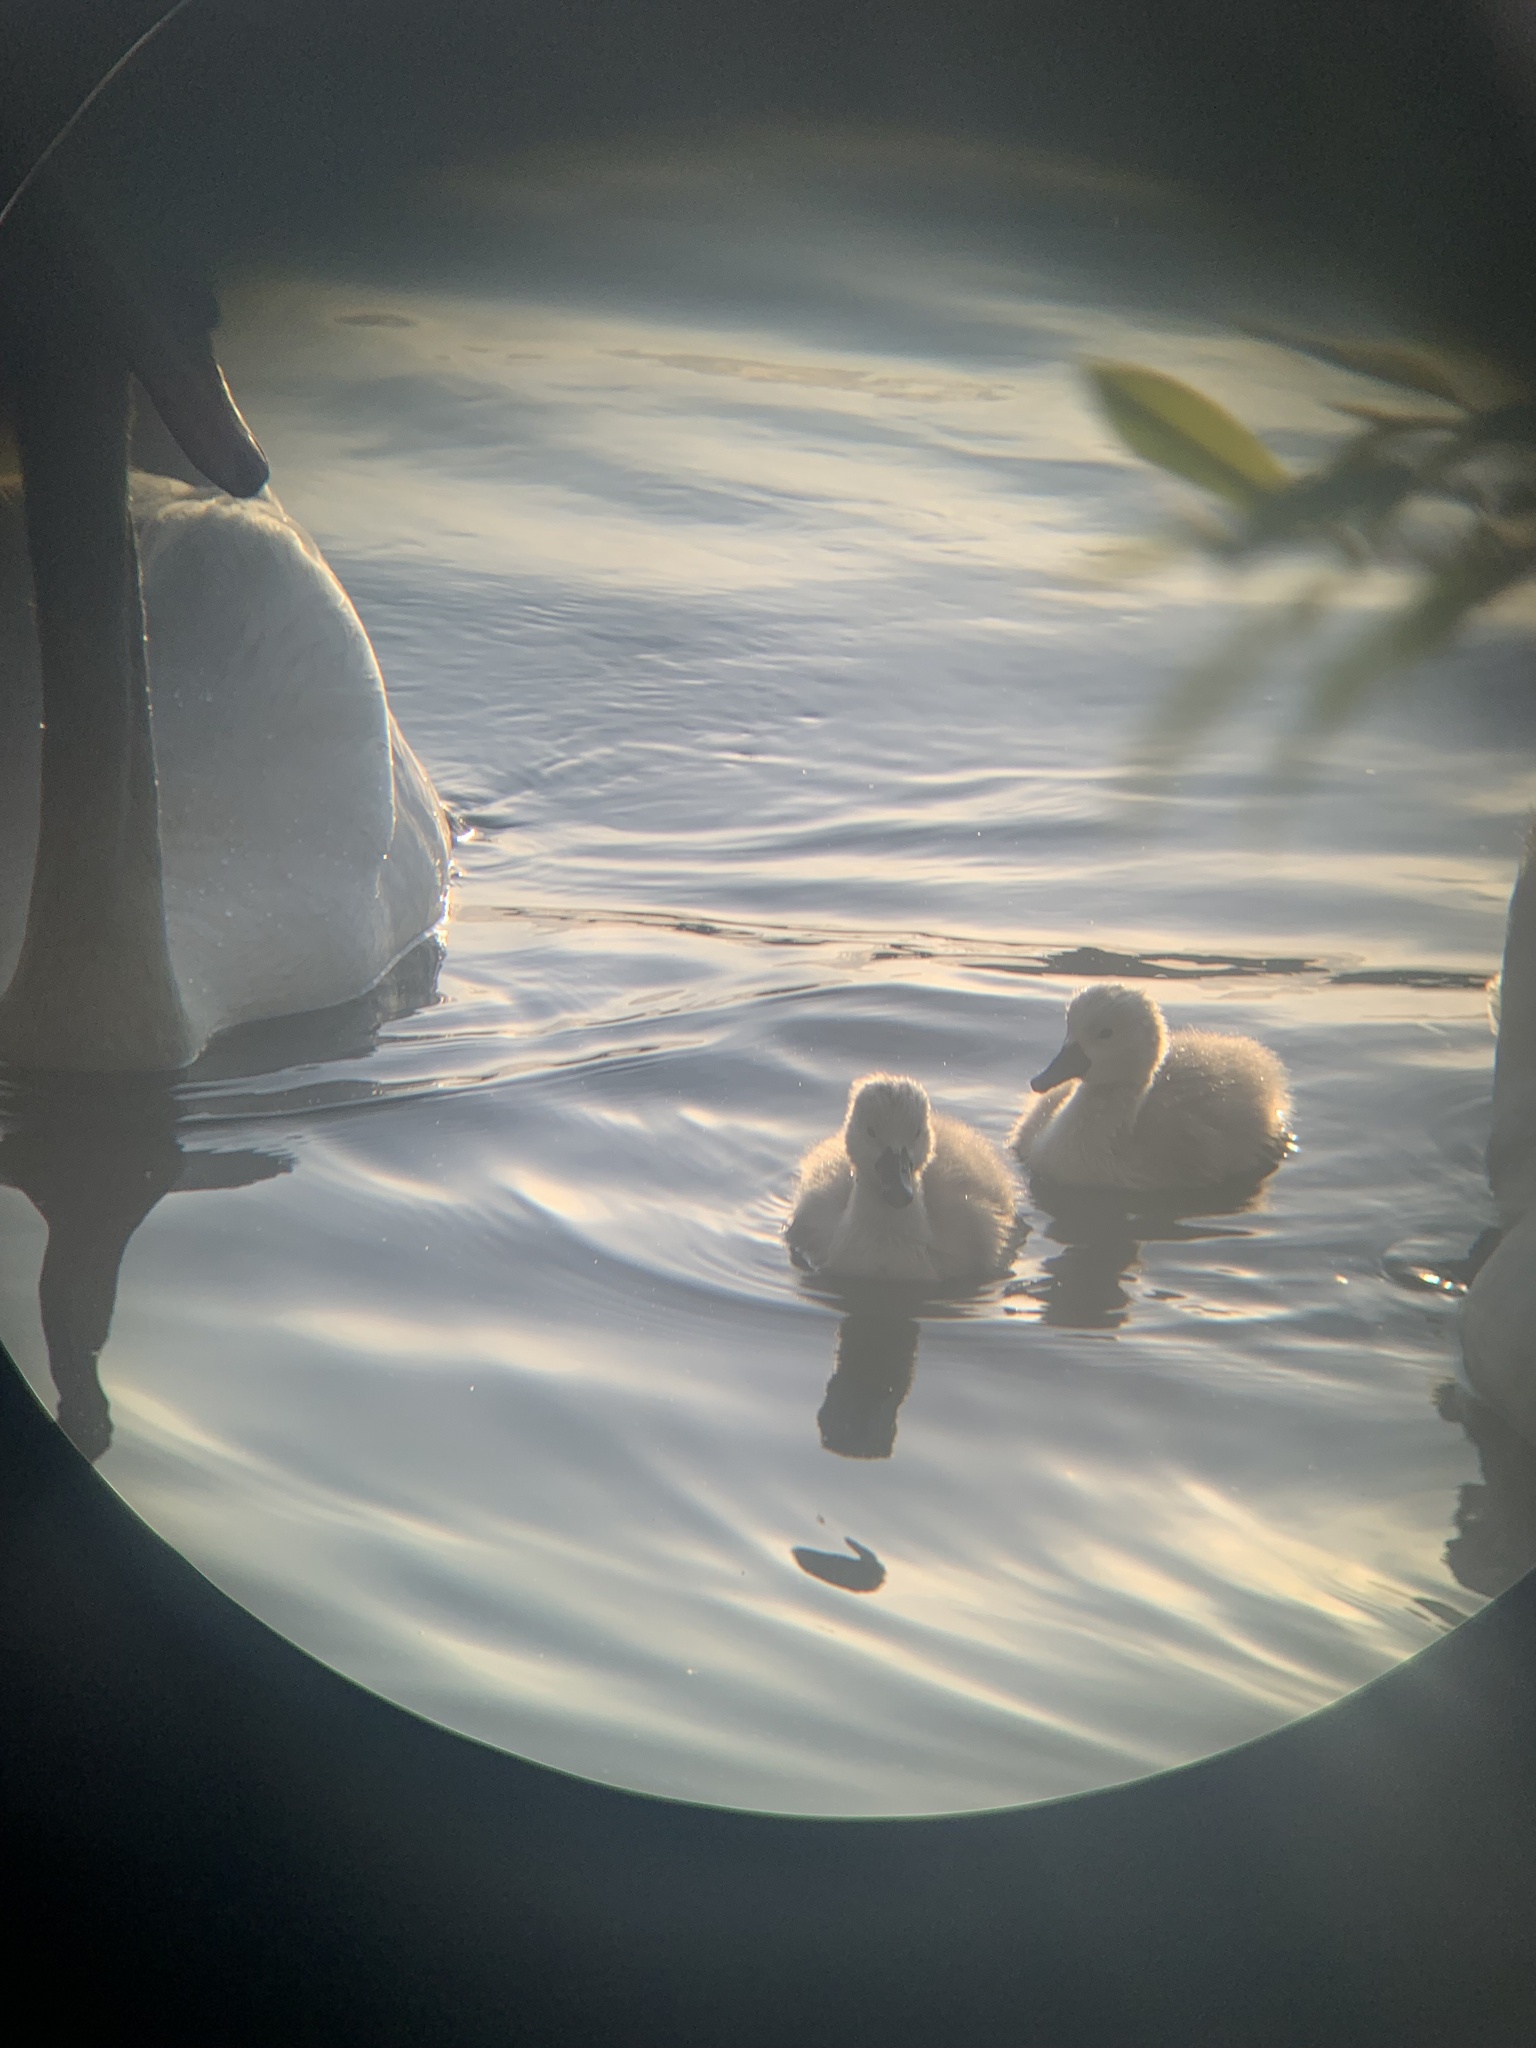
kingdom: Animalia
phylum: Chordata
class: Aves
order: Anseriformes
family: Anatidae
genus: Cygnus
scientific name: Cygnus olor
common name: Mute swan
